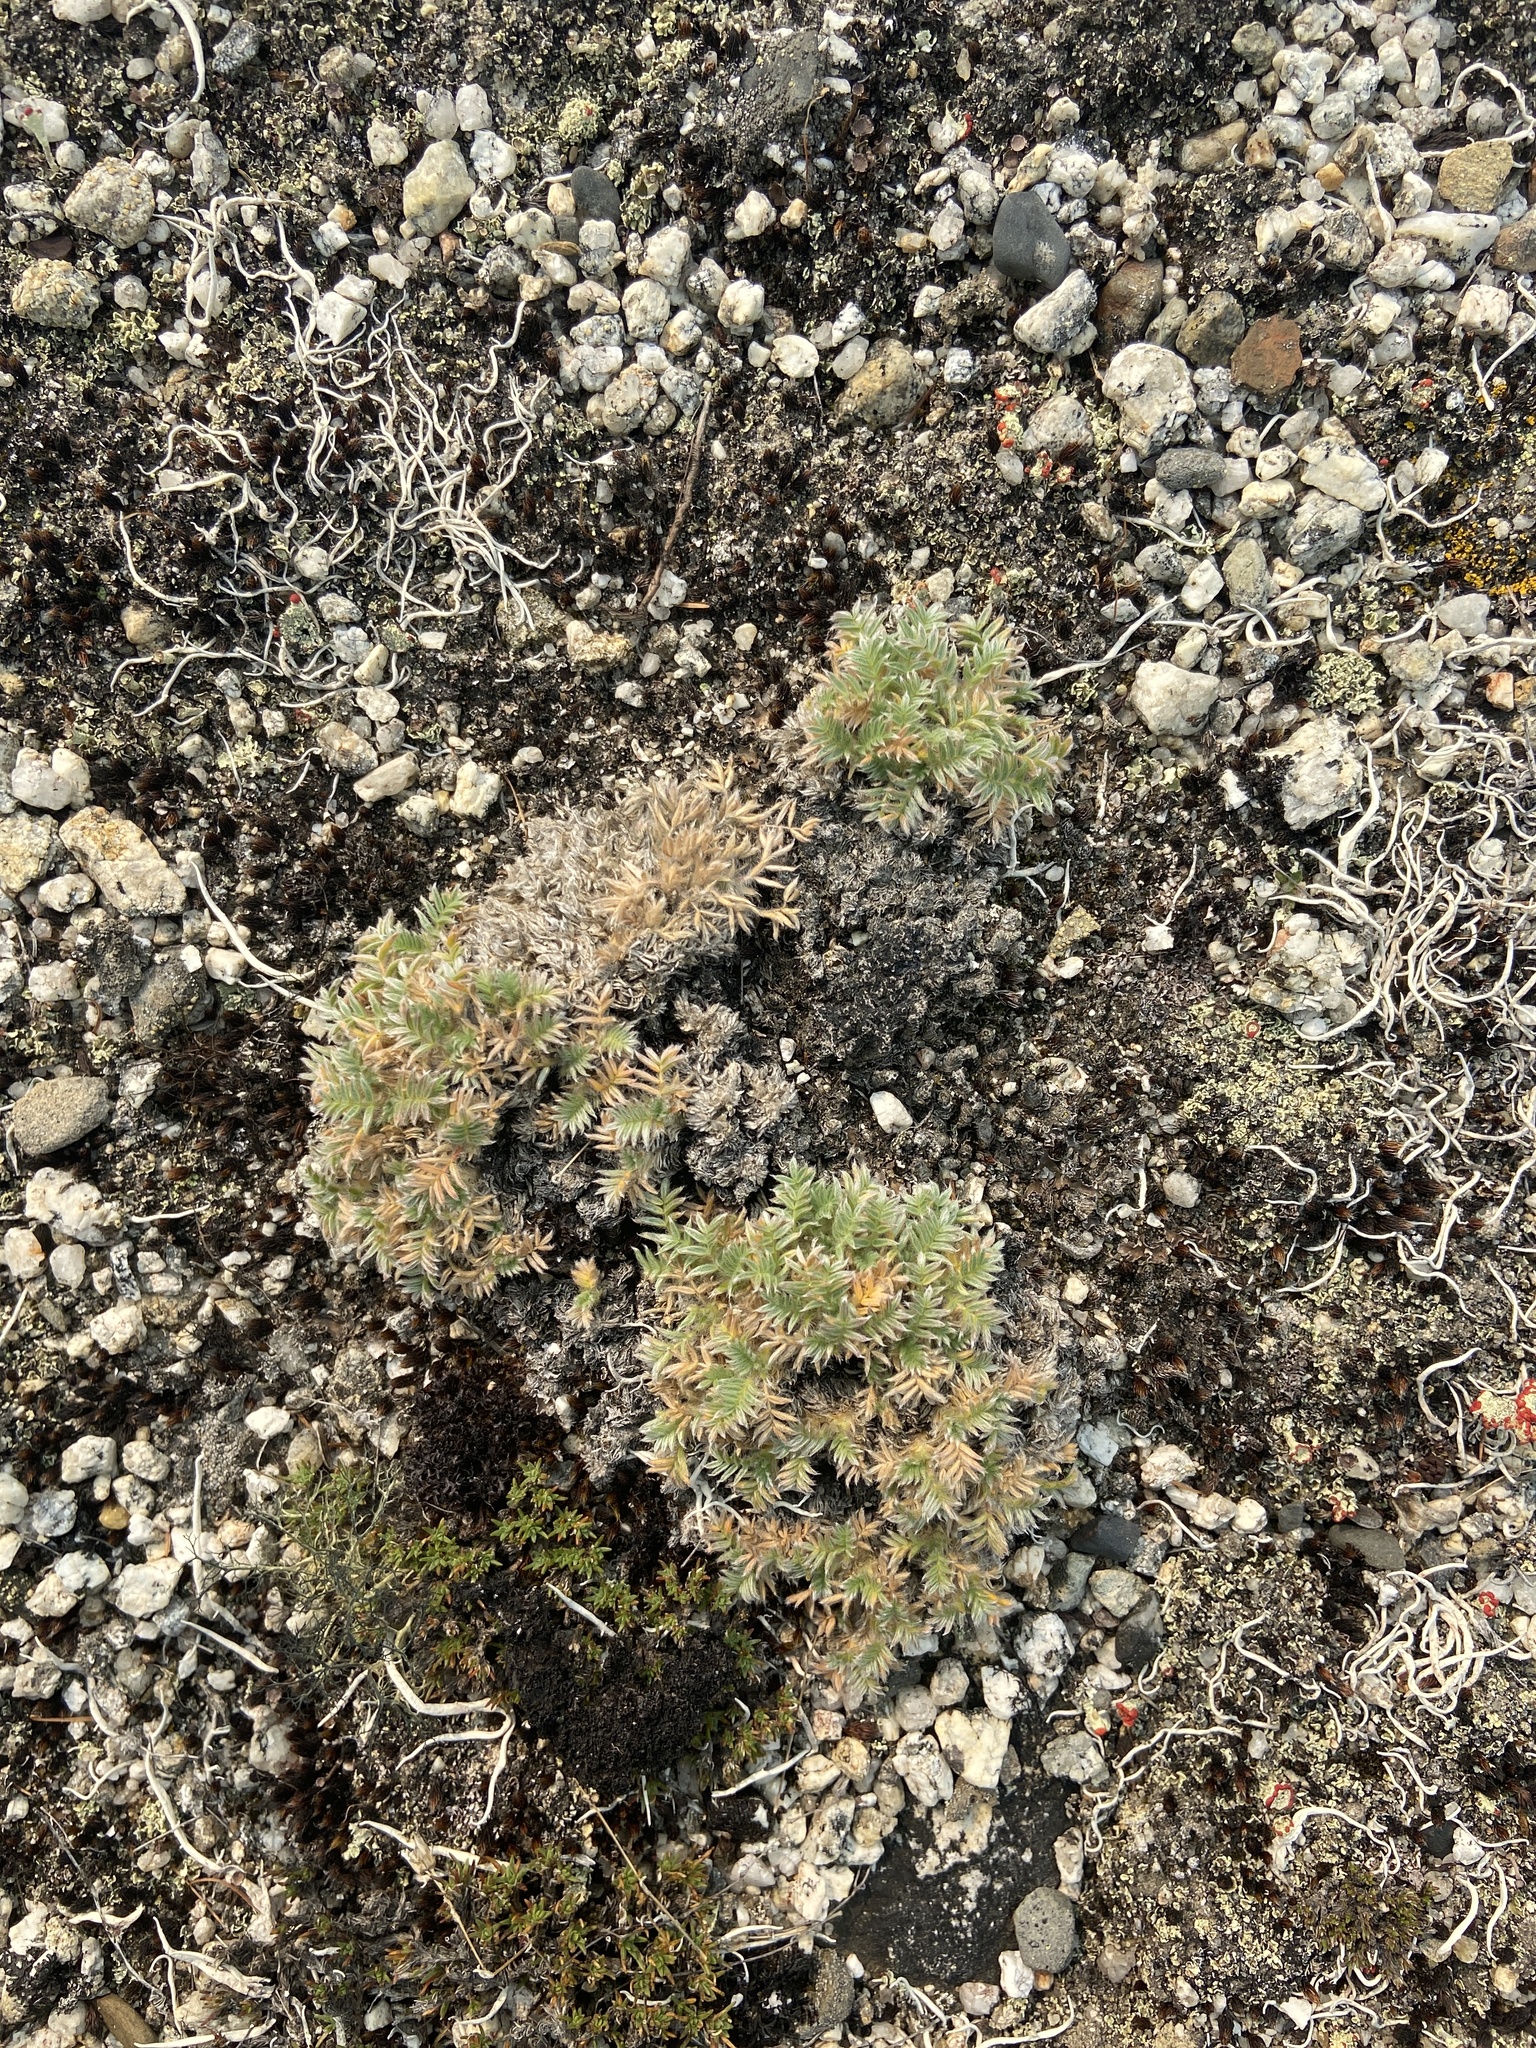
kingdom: Plantae
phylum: Tracheophyta
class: Magnoliopsida
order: Fabales
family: Fabaceae
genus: Oxytropis
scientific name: Oxytropis susumanica
